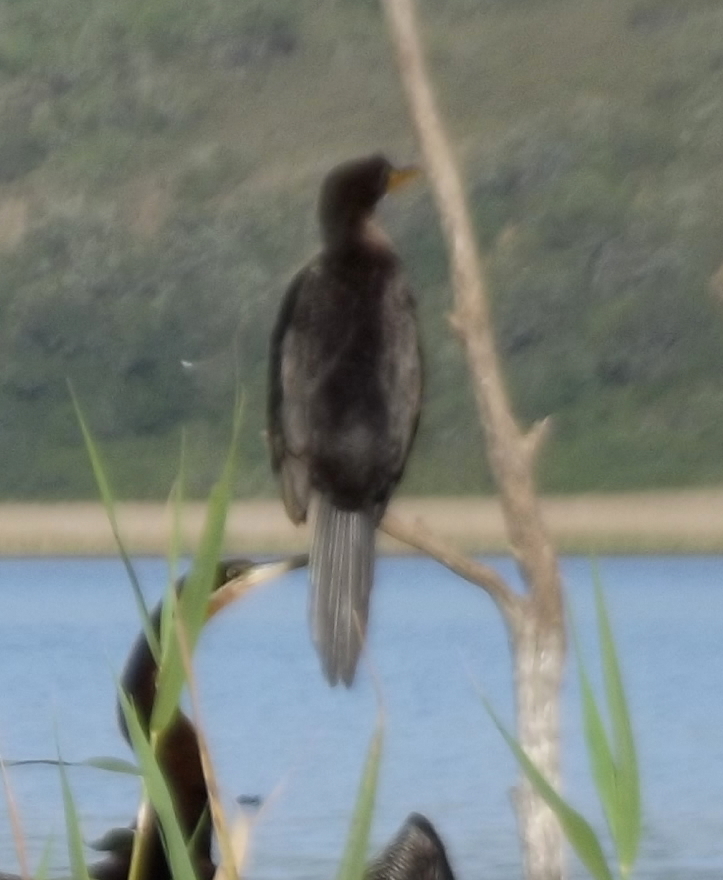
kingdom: Animalia
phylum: Chordata
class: Aves
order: Suliformes
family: Phalacrocoracidae
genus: Microcarbo
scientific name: Microcarbo africanus
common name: Long-tailed cormorant
